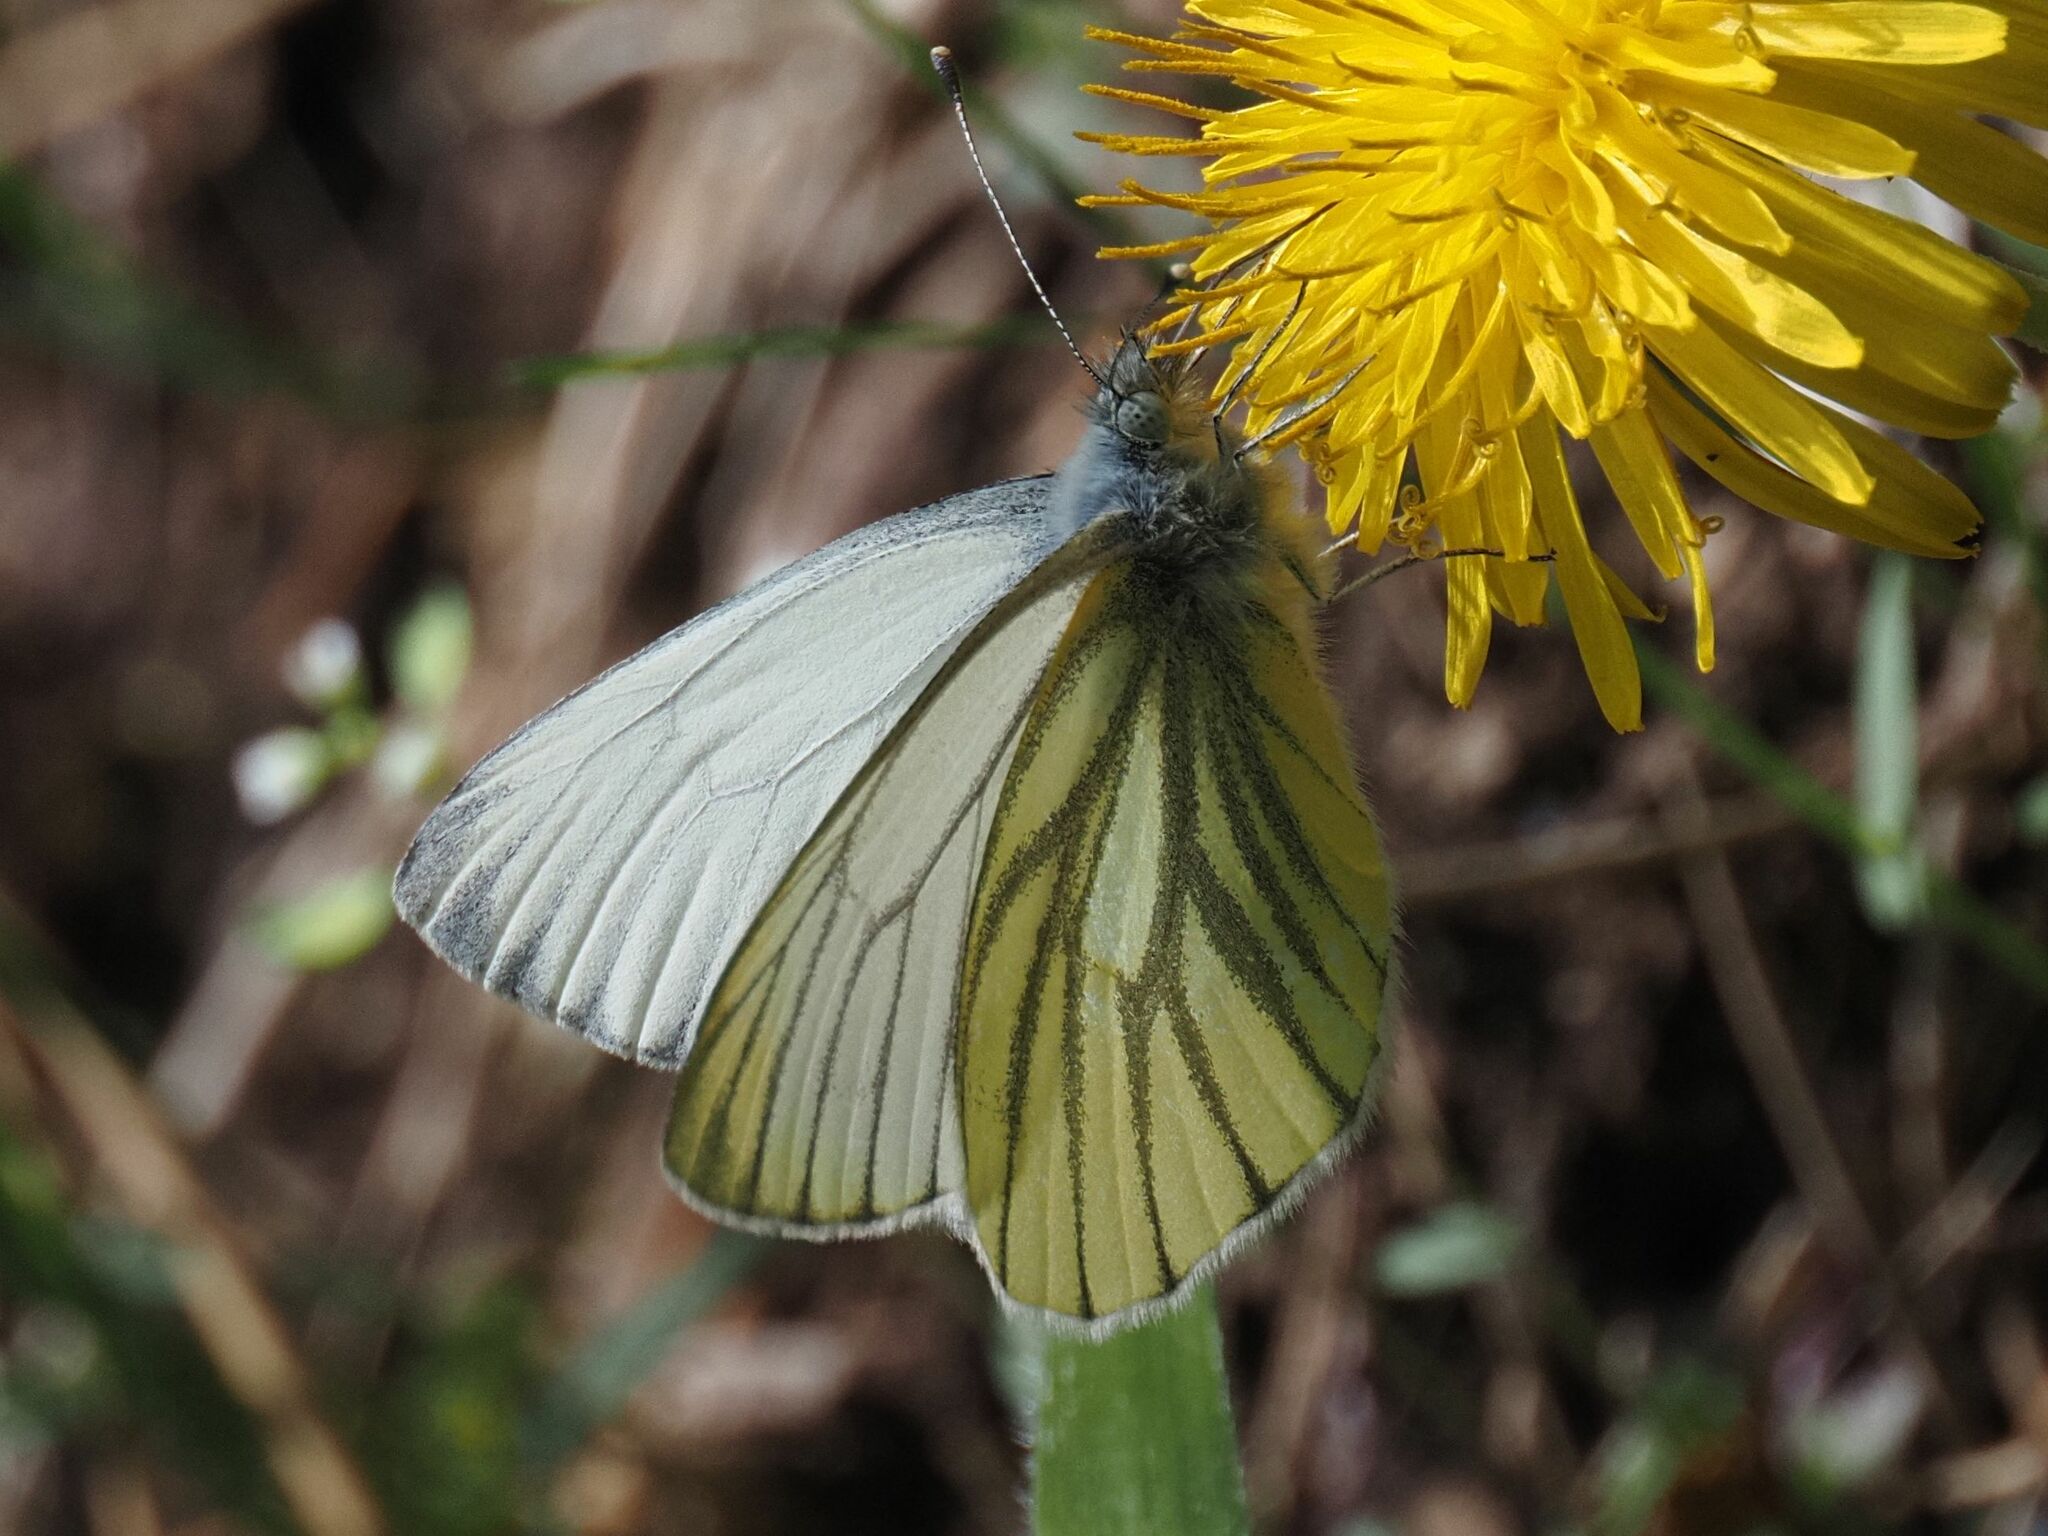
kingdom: Animalia
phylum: Arthropoda
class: Insecta
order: Lepidoptera
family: Pieridae
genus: Pieris
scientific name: Pieris napi
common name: Green-veined white
